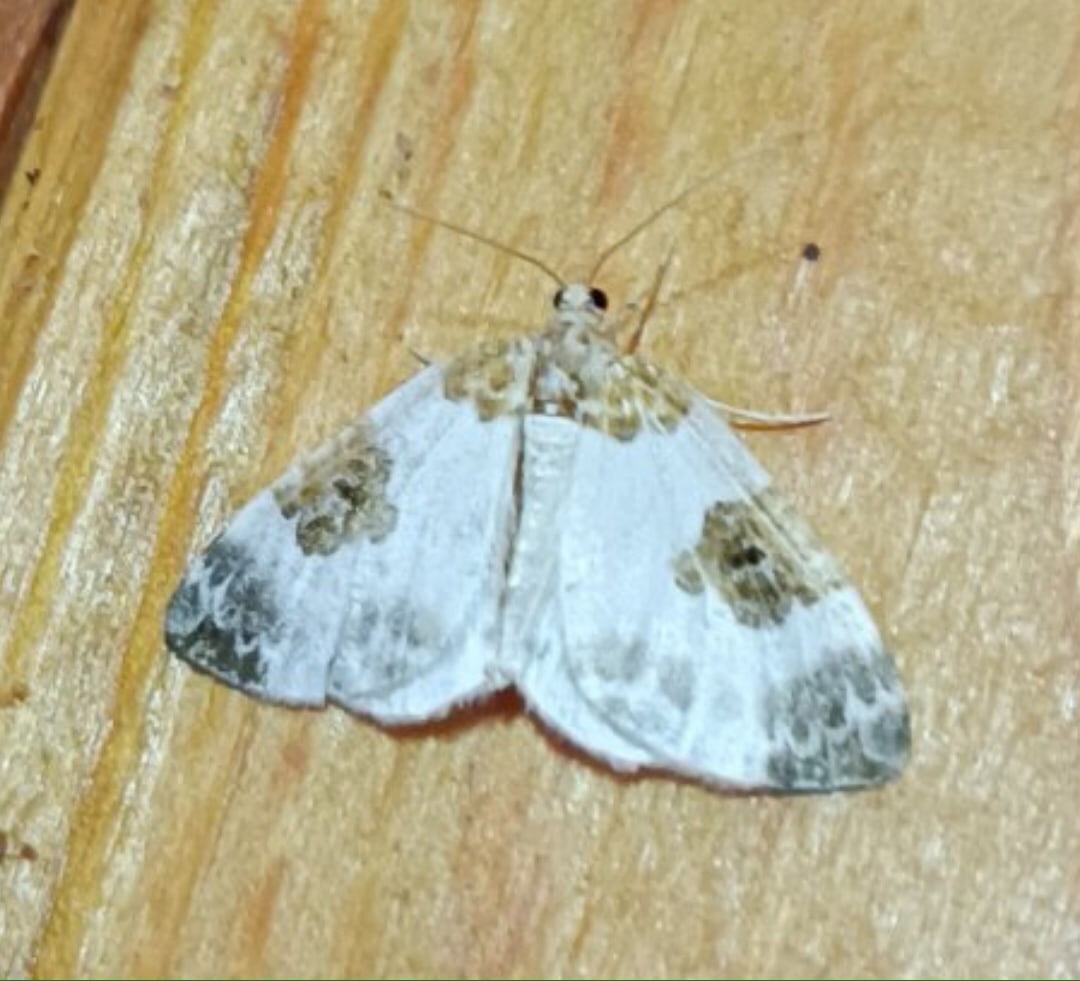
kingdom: Animalia
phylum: Arthropoda
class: Insecta
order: Lepidoptera
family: Geometridae
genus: Plemyria
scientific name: Plemyria rubiginata
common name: Blue-bordered carpet
